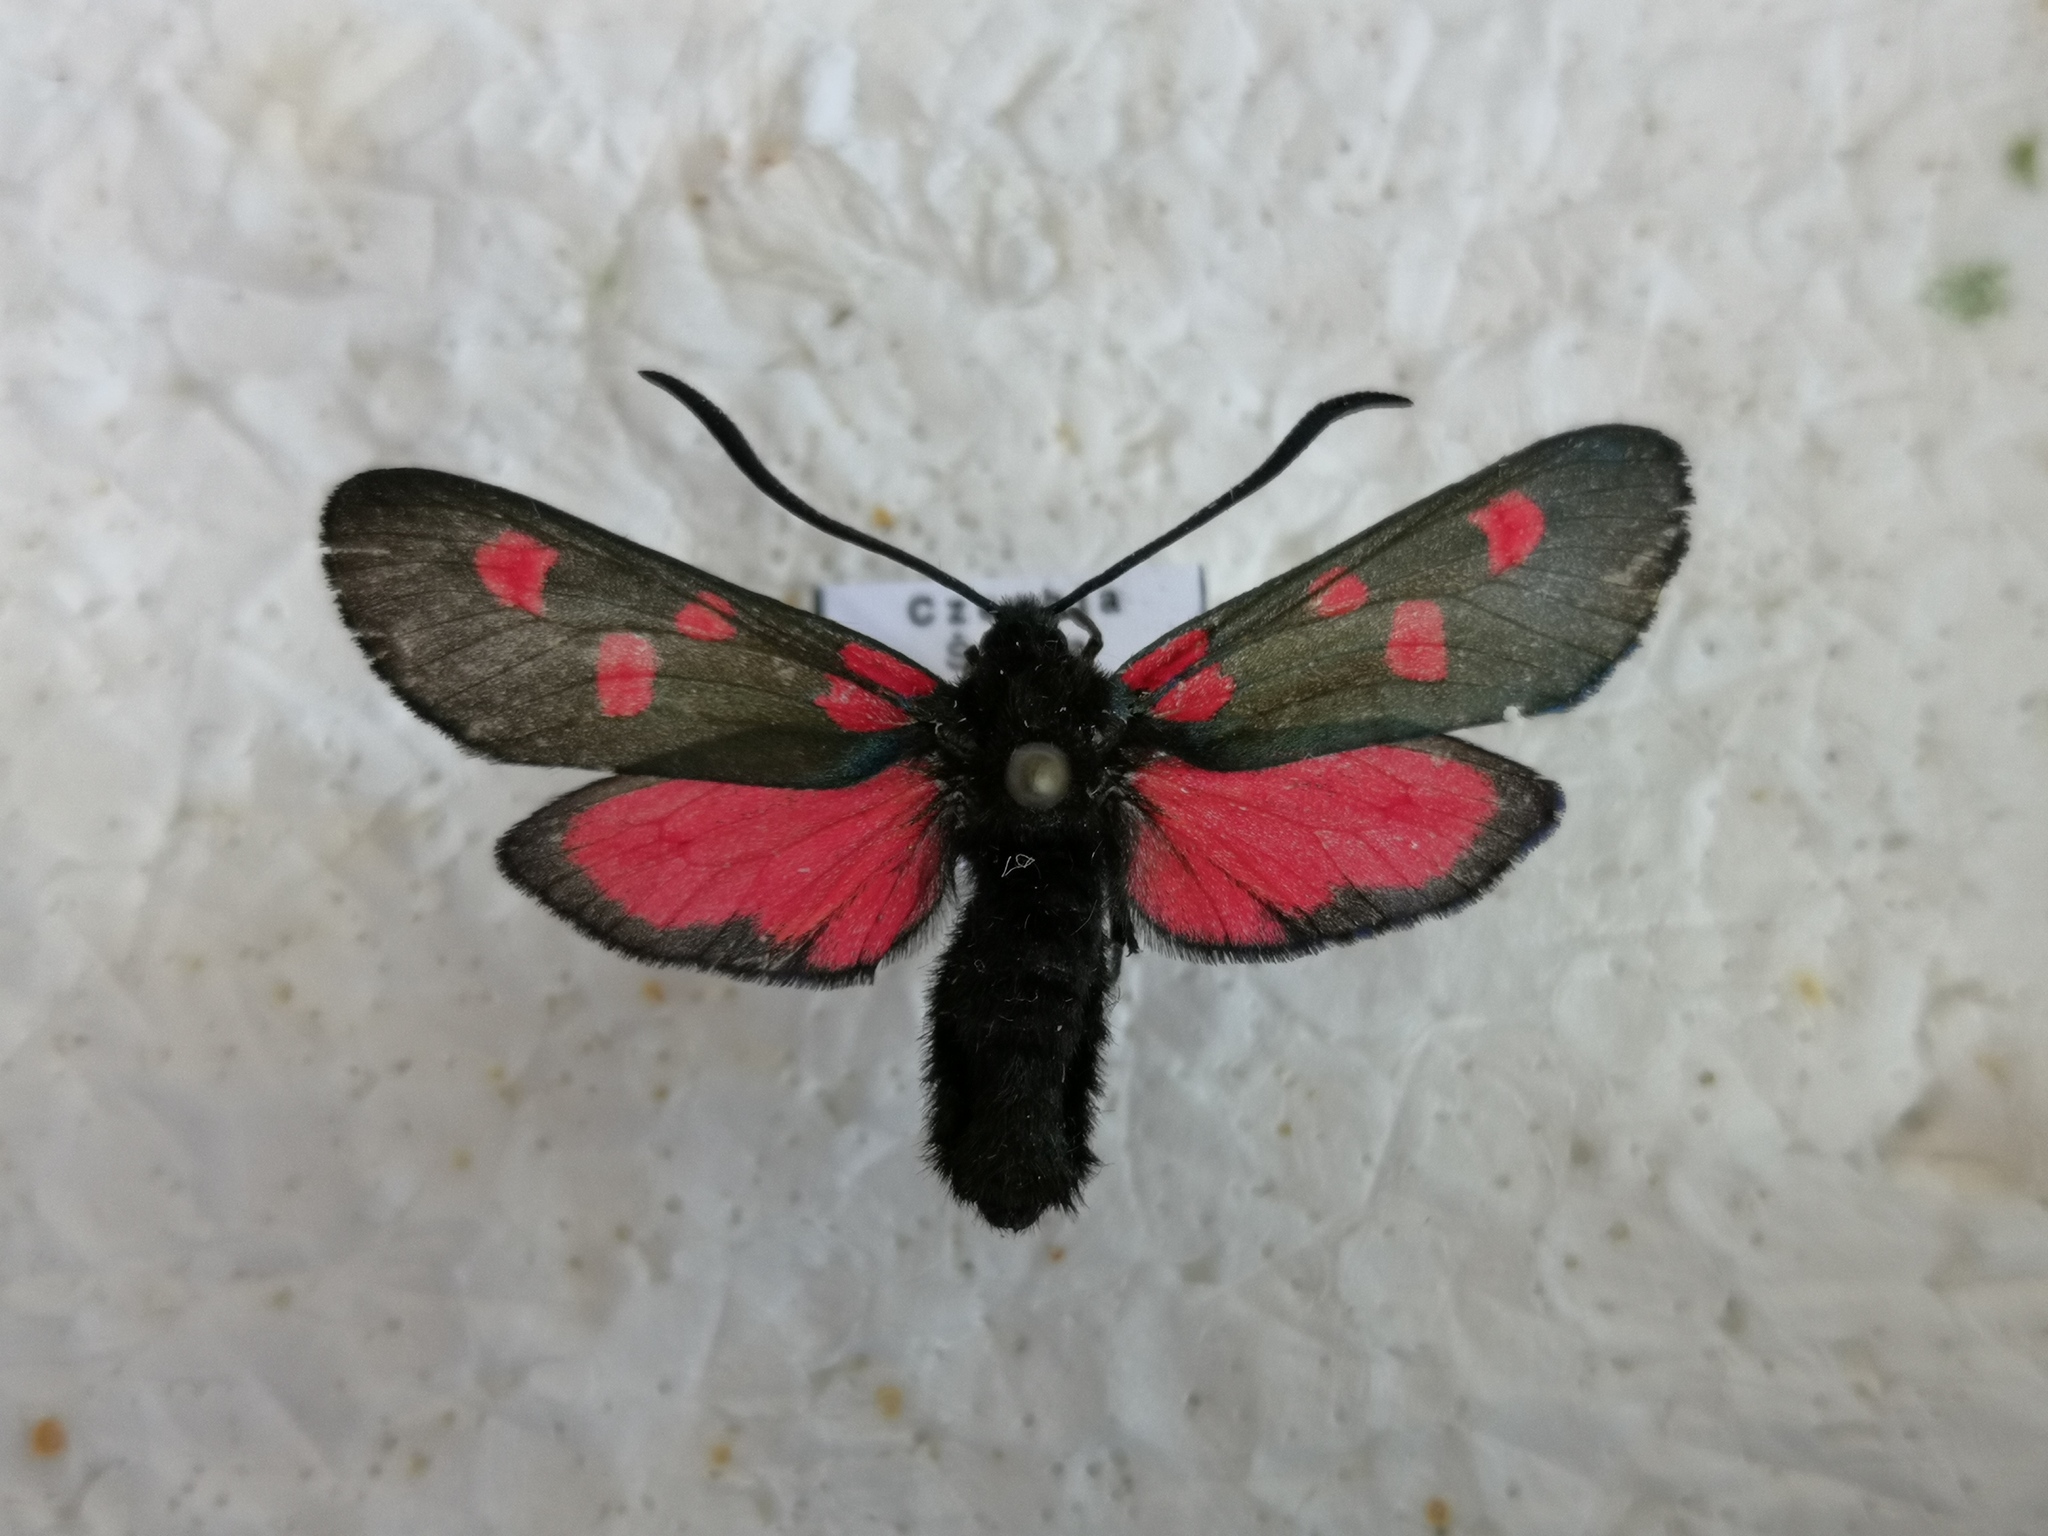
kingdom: Animalia
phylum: Arthropoda
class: Insecta
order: Lepidoptera
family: Zygaenidae
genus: Zygaena
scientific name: Zygaena lonicerae
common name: Narrow-bordered five-spot burnet
